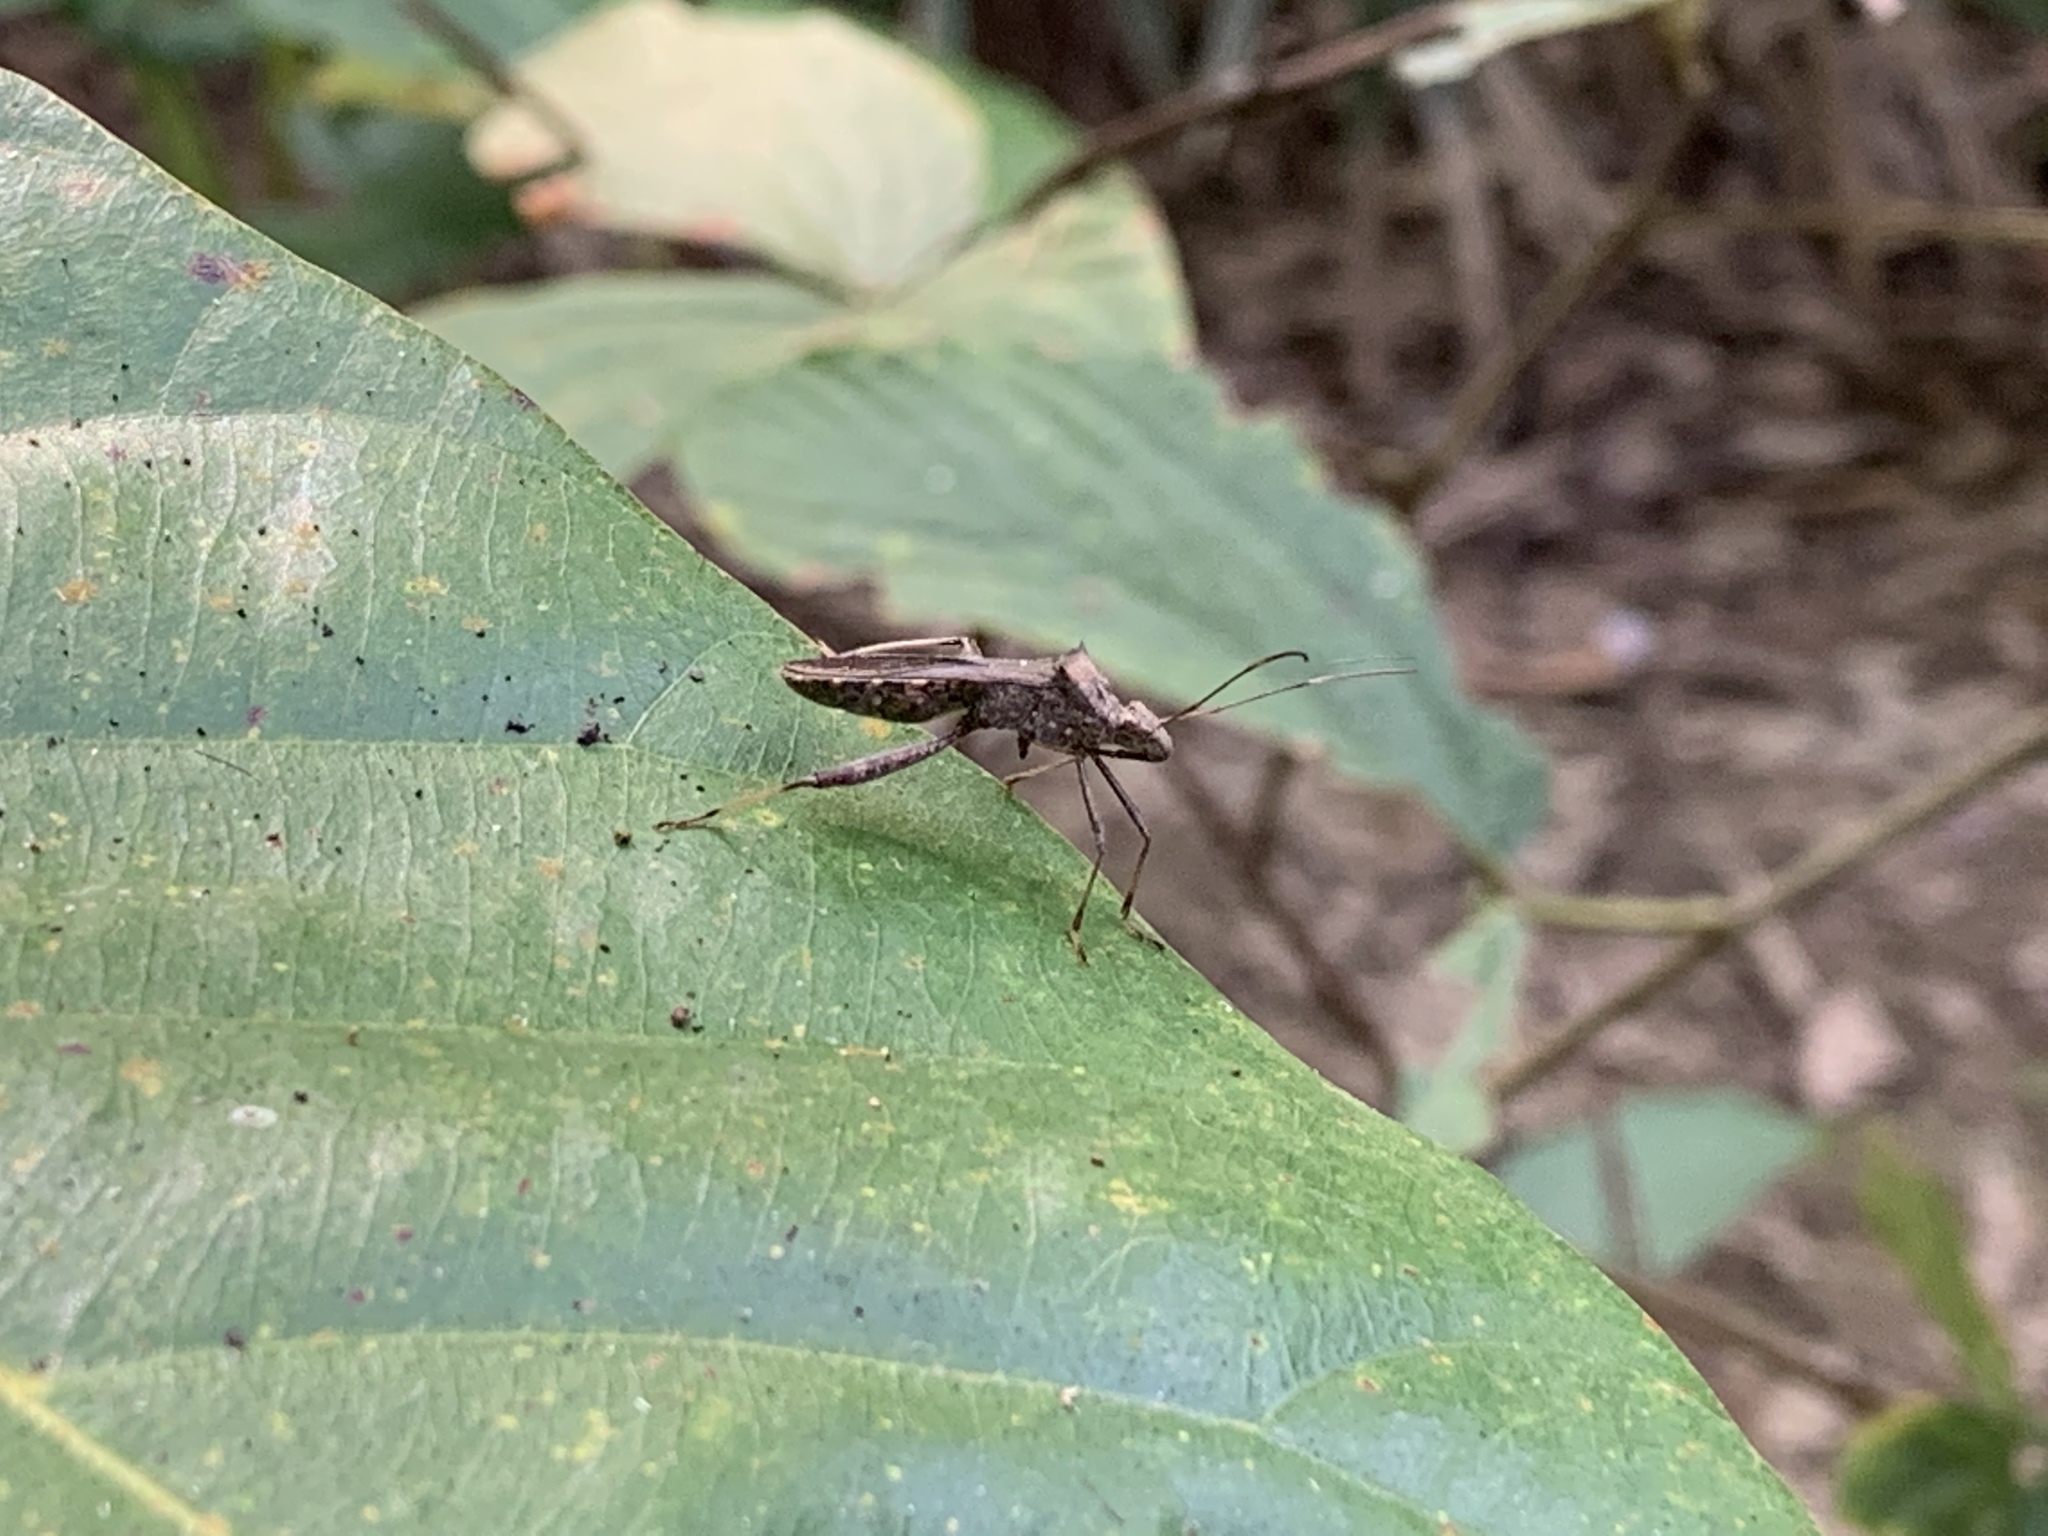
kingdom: Animalia
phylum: Arthropoda
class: Insecta
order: Hemiptera
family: Alydidae
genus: Riptortus
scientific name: Riptortus pedestris
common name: Bean bug
